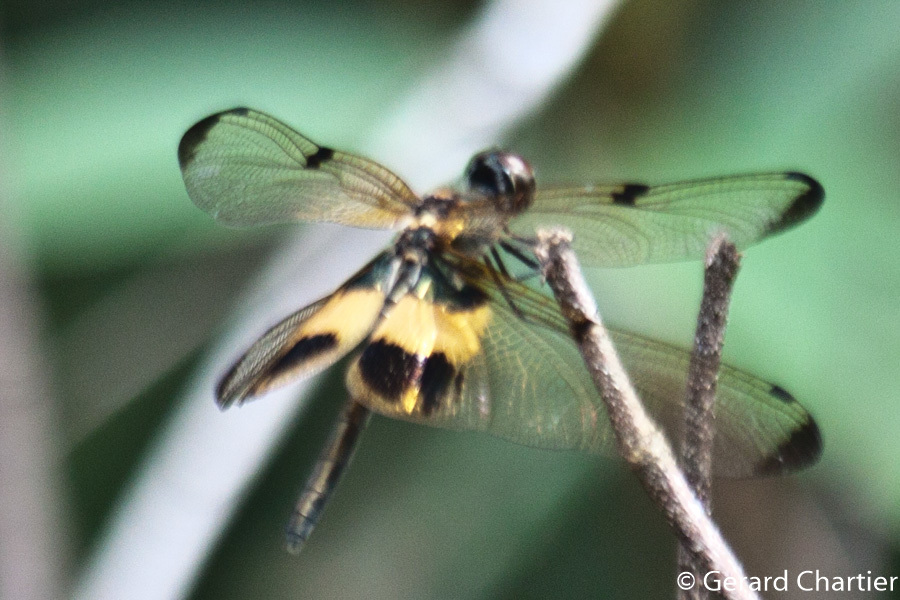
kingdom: Animalia
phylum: Arthropoda
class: Insecta
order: Odonata
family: Libellulidae
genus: Rhyothemis
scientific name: Rhyothemis phyllis
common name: Yellow-barred flutterer
